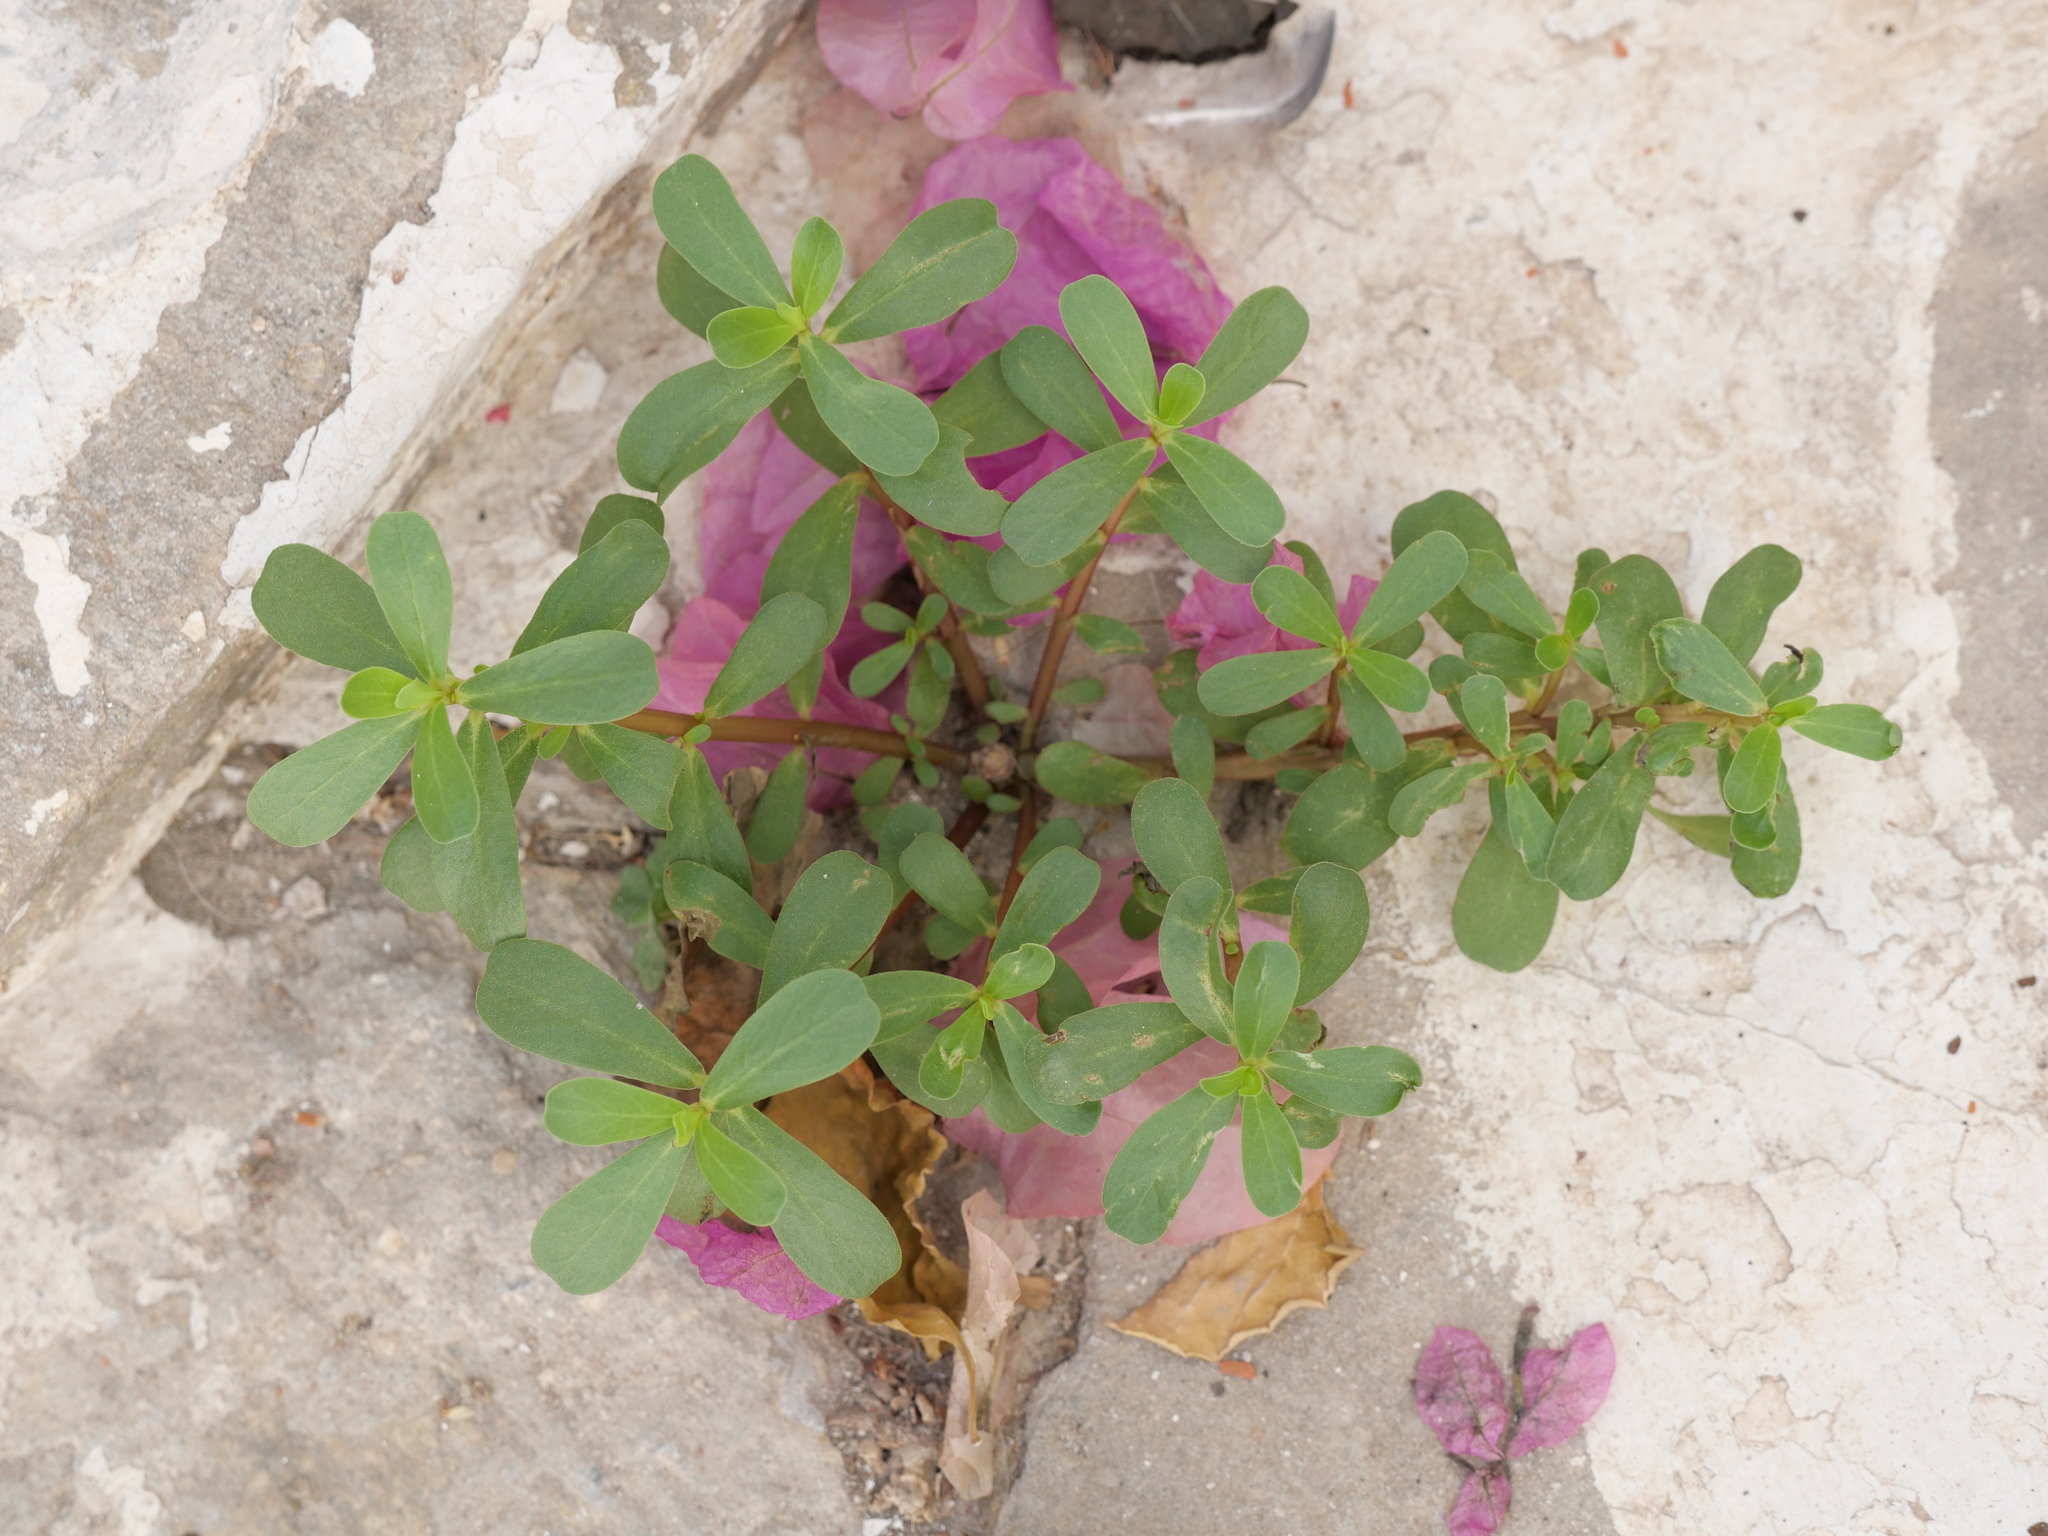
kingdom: Plantae
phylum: Tracheophyta
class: Magnoliopsida
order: Caryophyllales
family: Portulacaceae
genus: Portulaca
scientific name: Portulaca oleracea
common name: Common purslane
